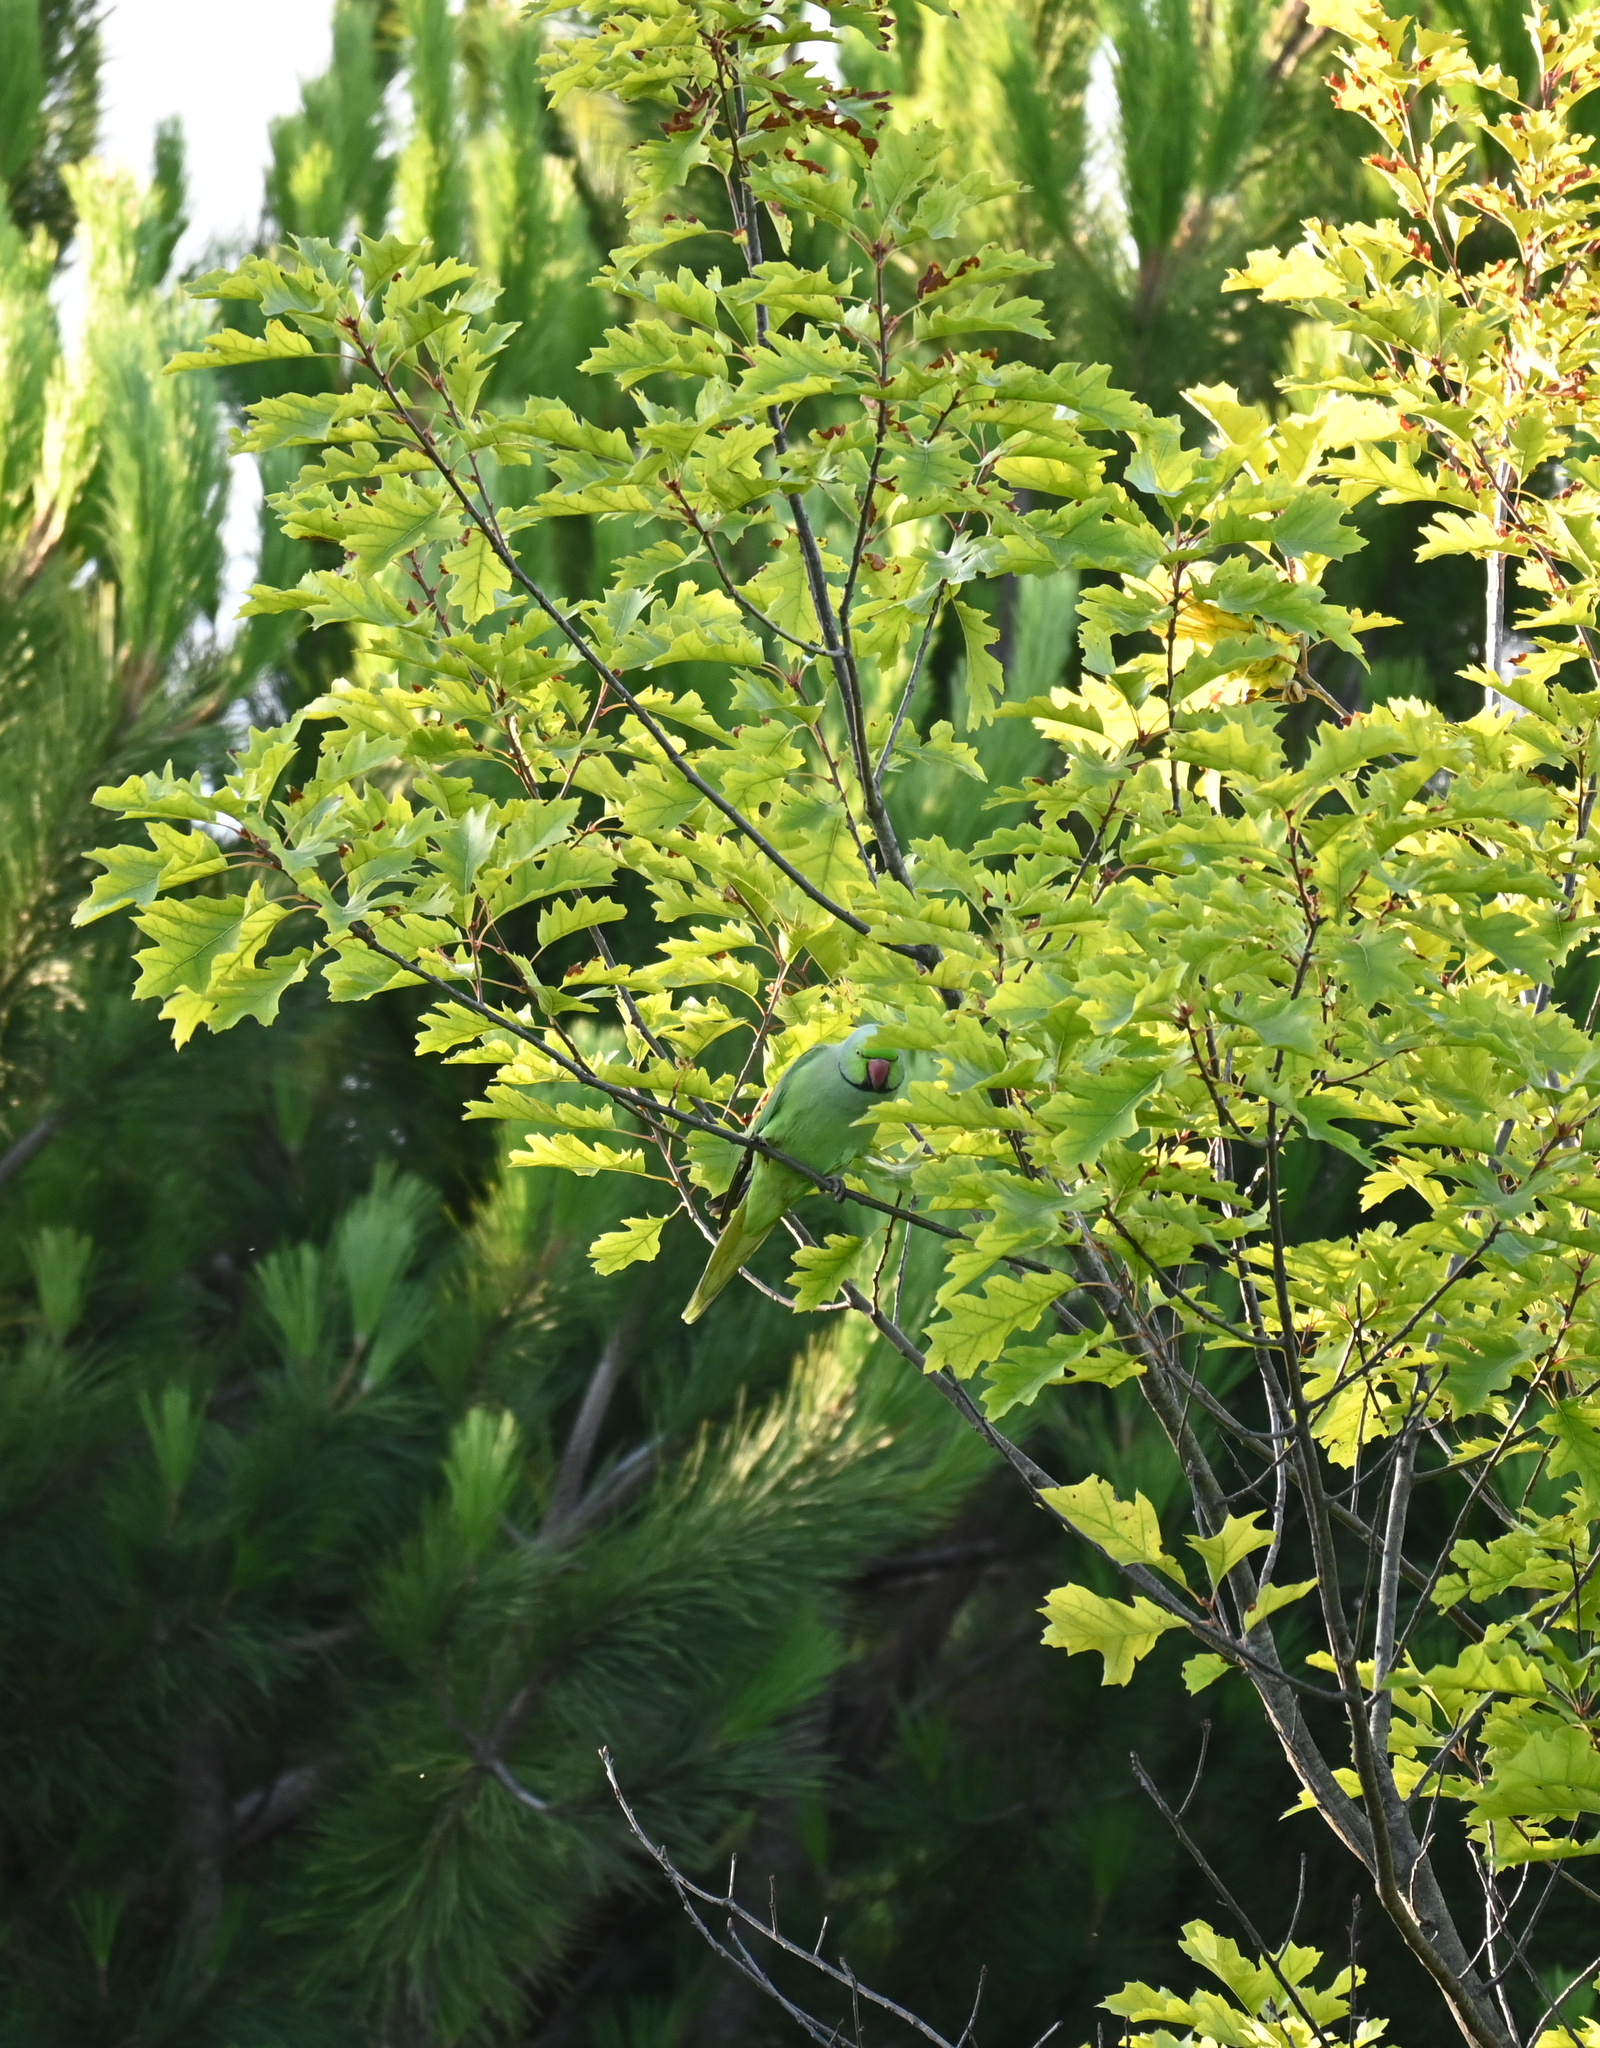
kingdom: Animalia
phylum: Chordata
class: Aves
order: Psittaciformes
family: Psittacidae
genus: Psittacula
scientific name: Psittacula krameri
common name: Rose-ringed parakeet
